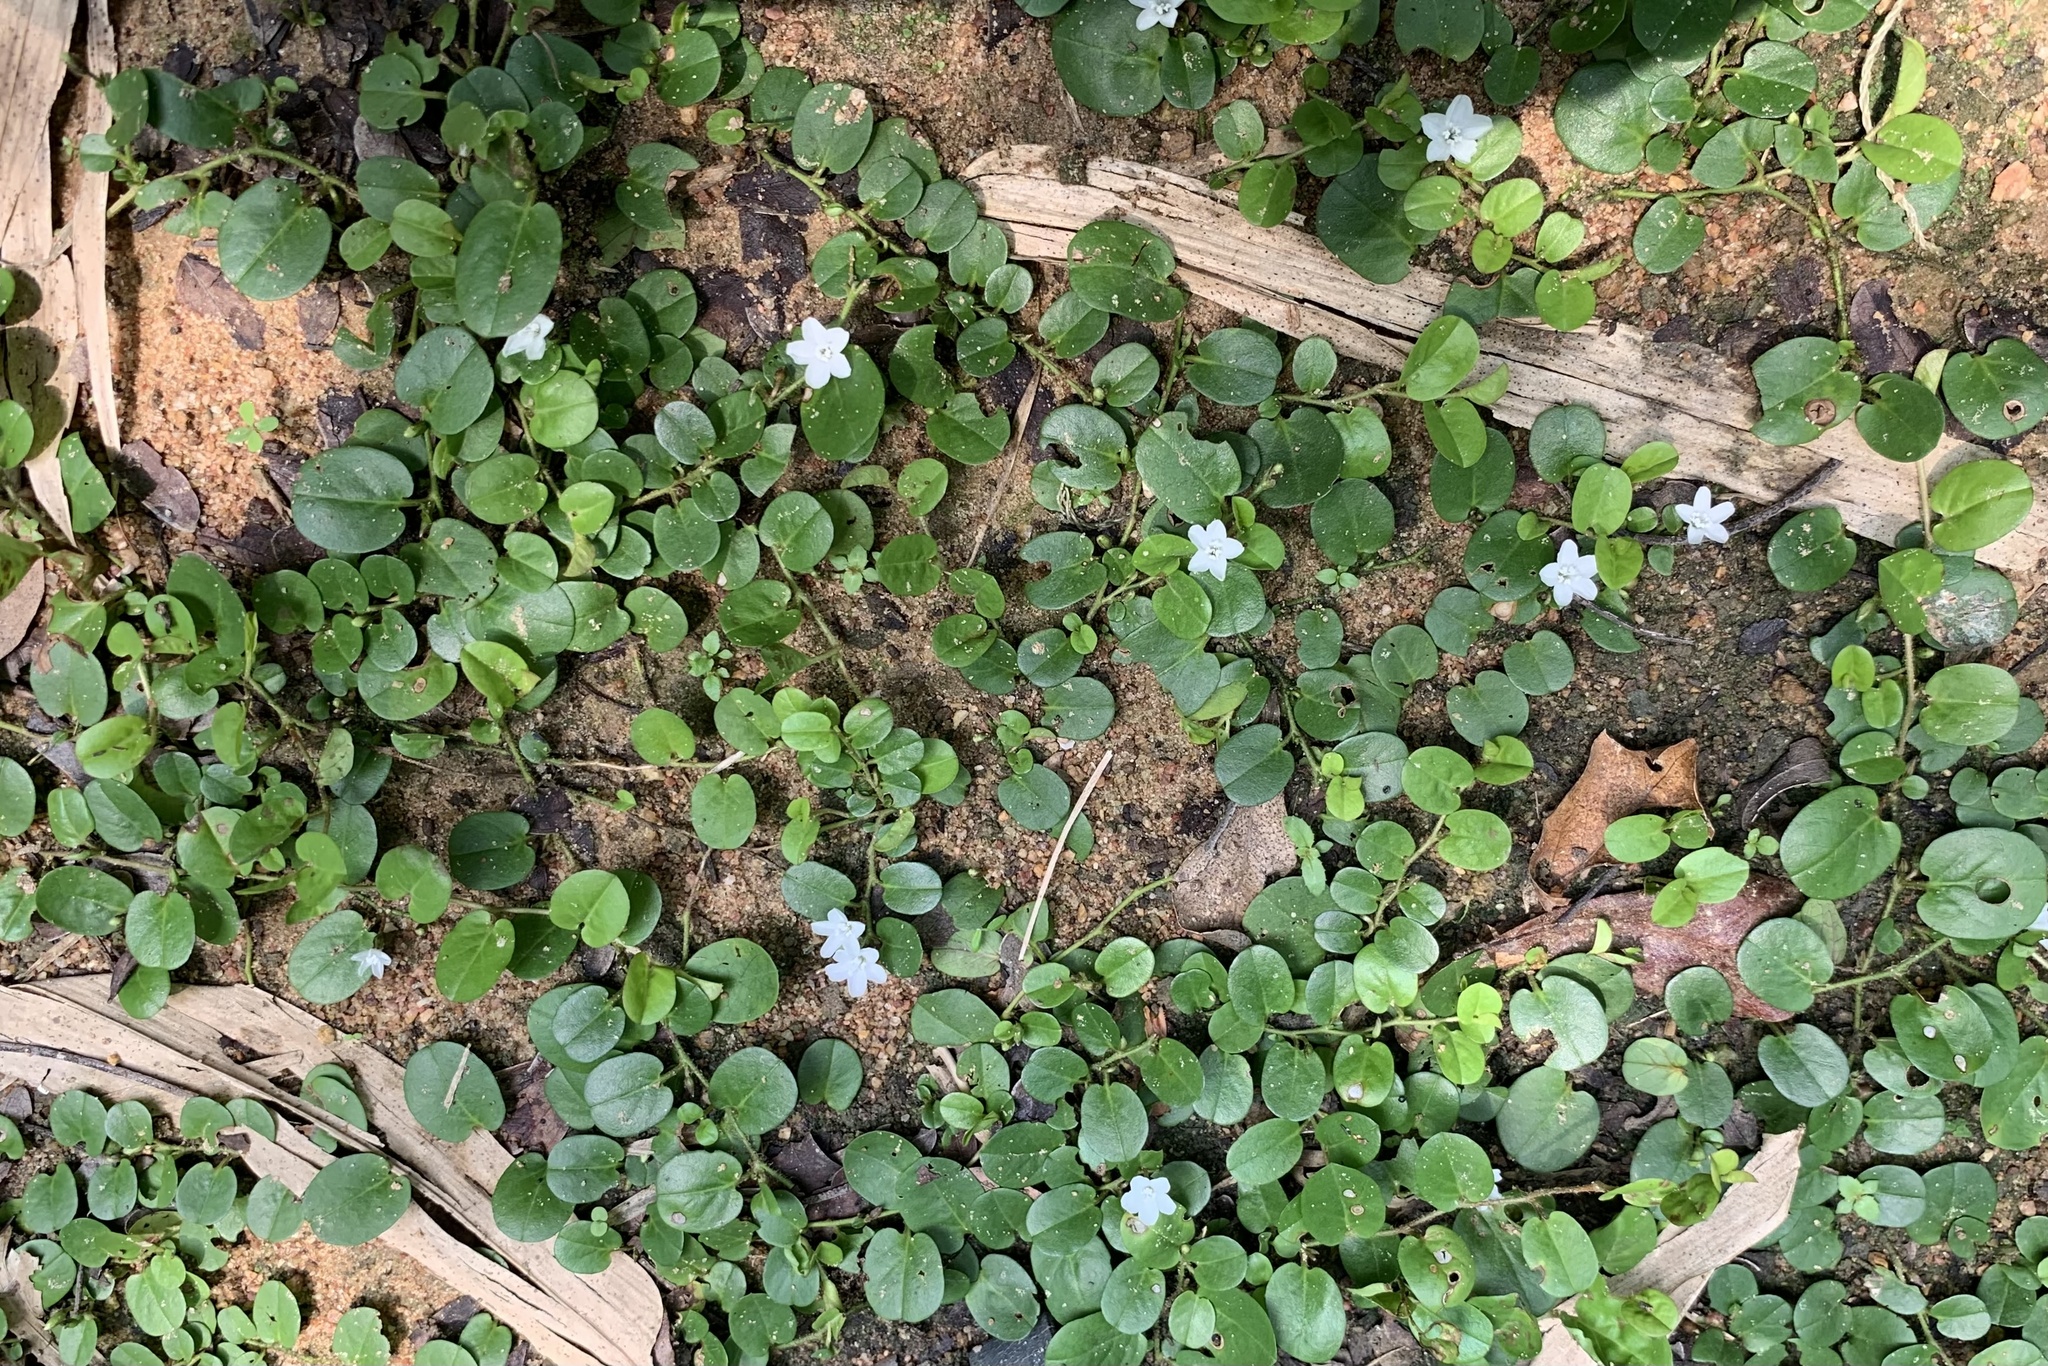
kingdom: Plantae
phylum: Tracheophyta
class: Magnoliopsida
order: Solanales
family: Convolvulaceae
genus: Evolvulus
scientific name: Evolvulus nummularius
